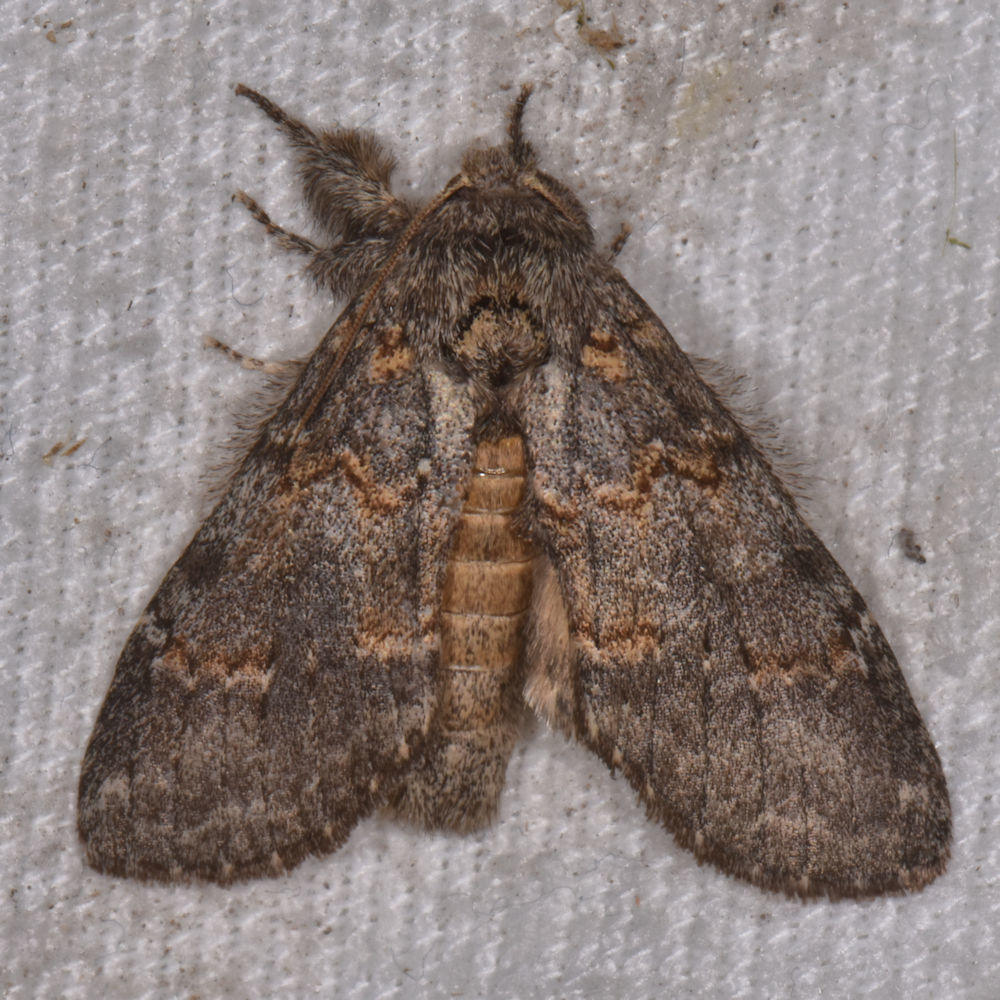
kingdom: Animalia
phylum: Arthropoda
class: Insecta
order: Lepidoptera
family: Notodontidae
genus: Peridea
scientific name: Peridea angulosa
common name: Angulose prominent
